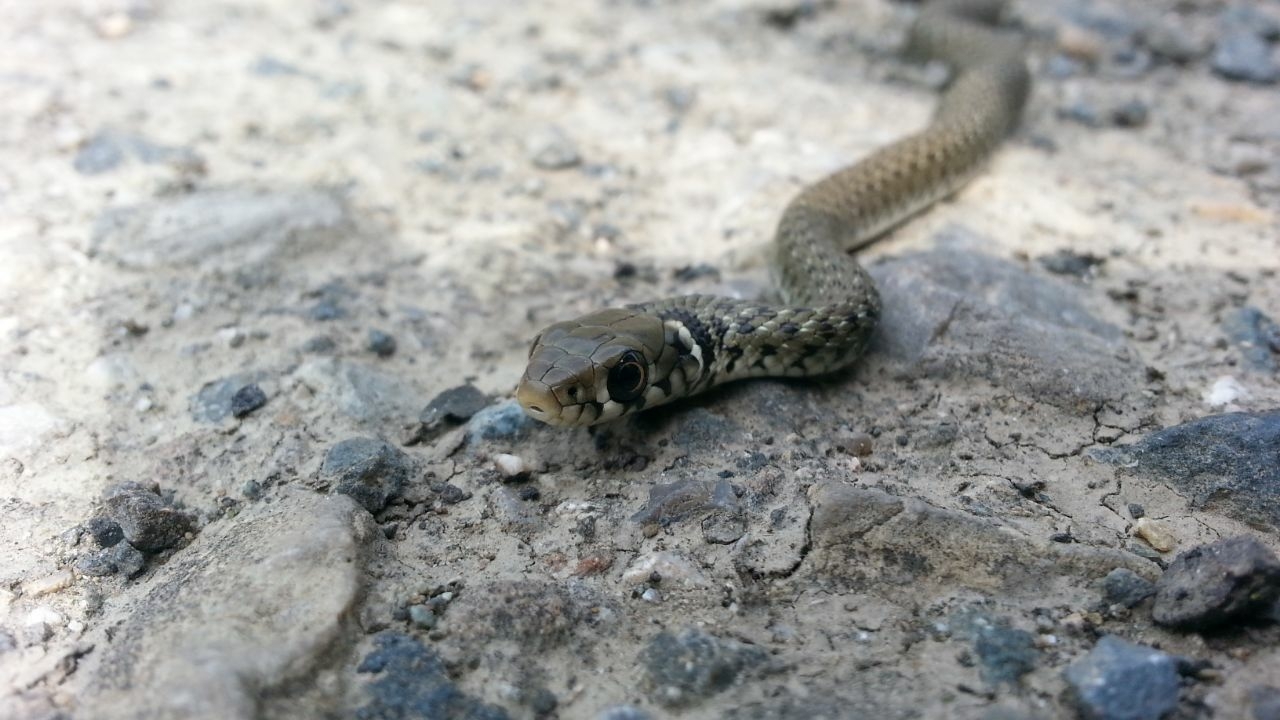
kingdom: Animalia
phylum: Chordata
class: Squamata
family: Colubridae
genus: Natrix
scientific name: Natrix natrix
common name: Grass snake
